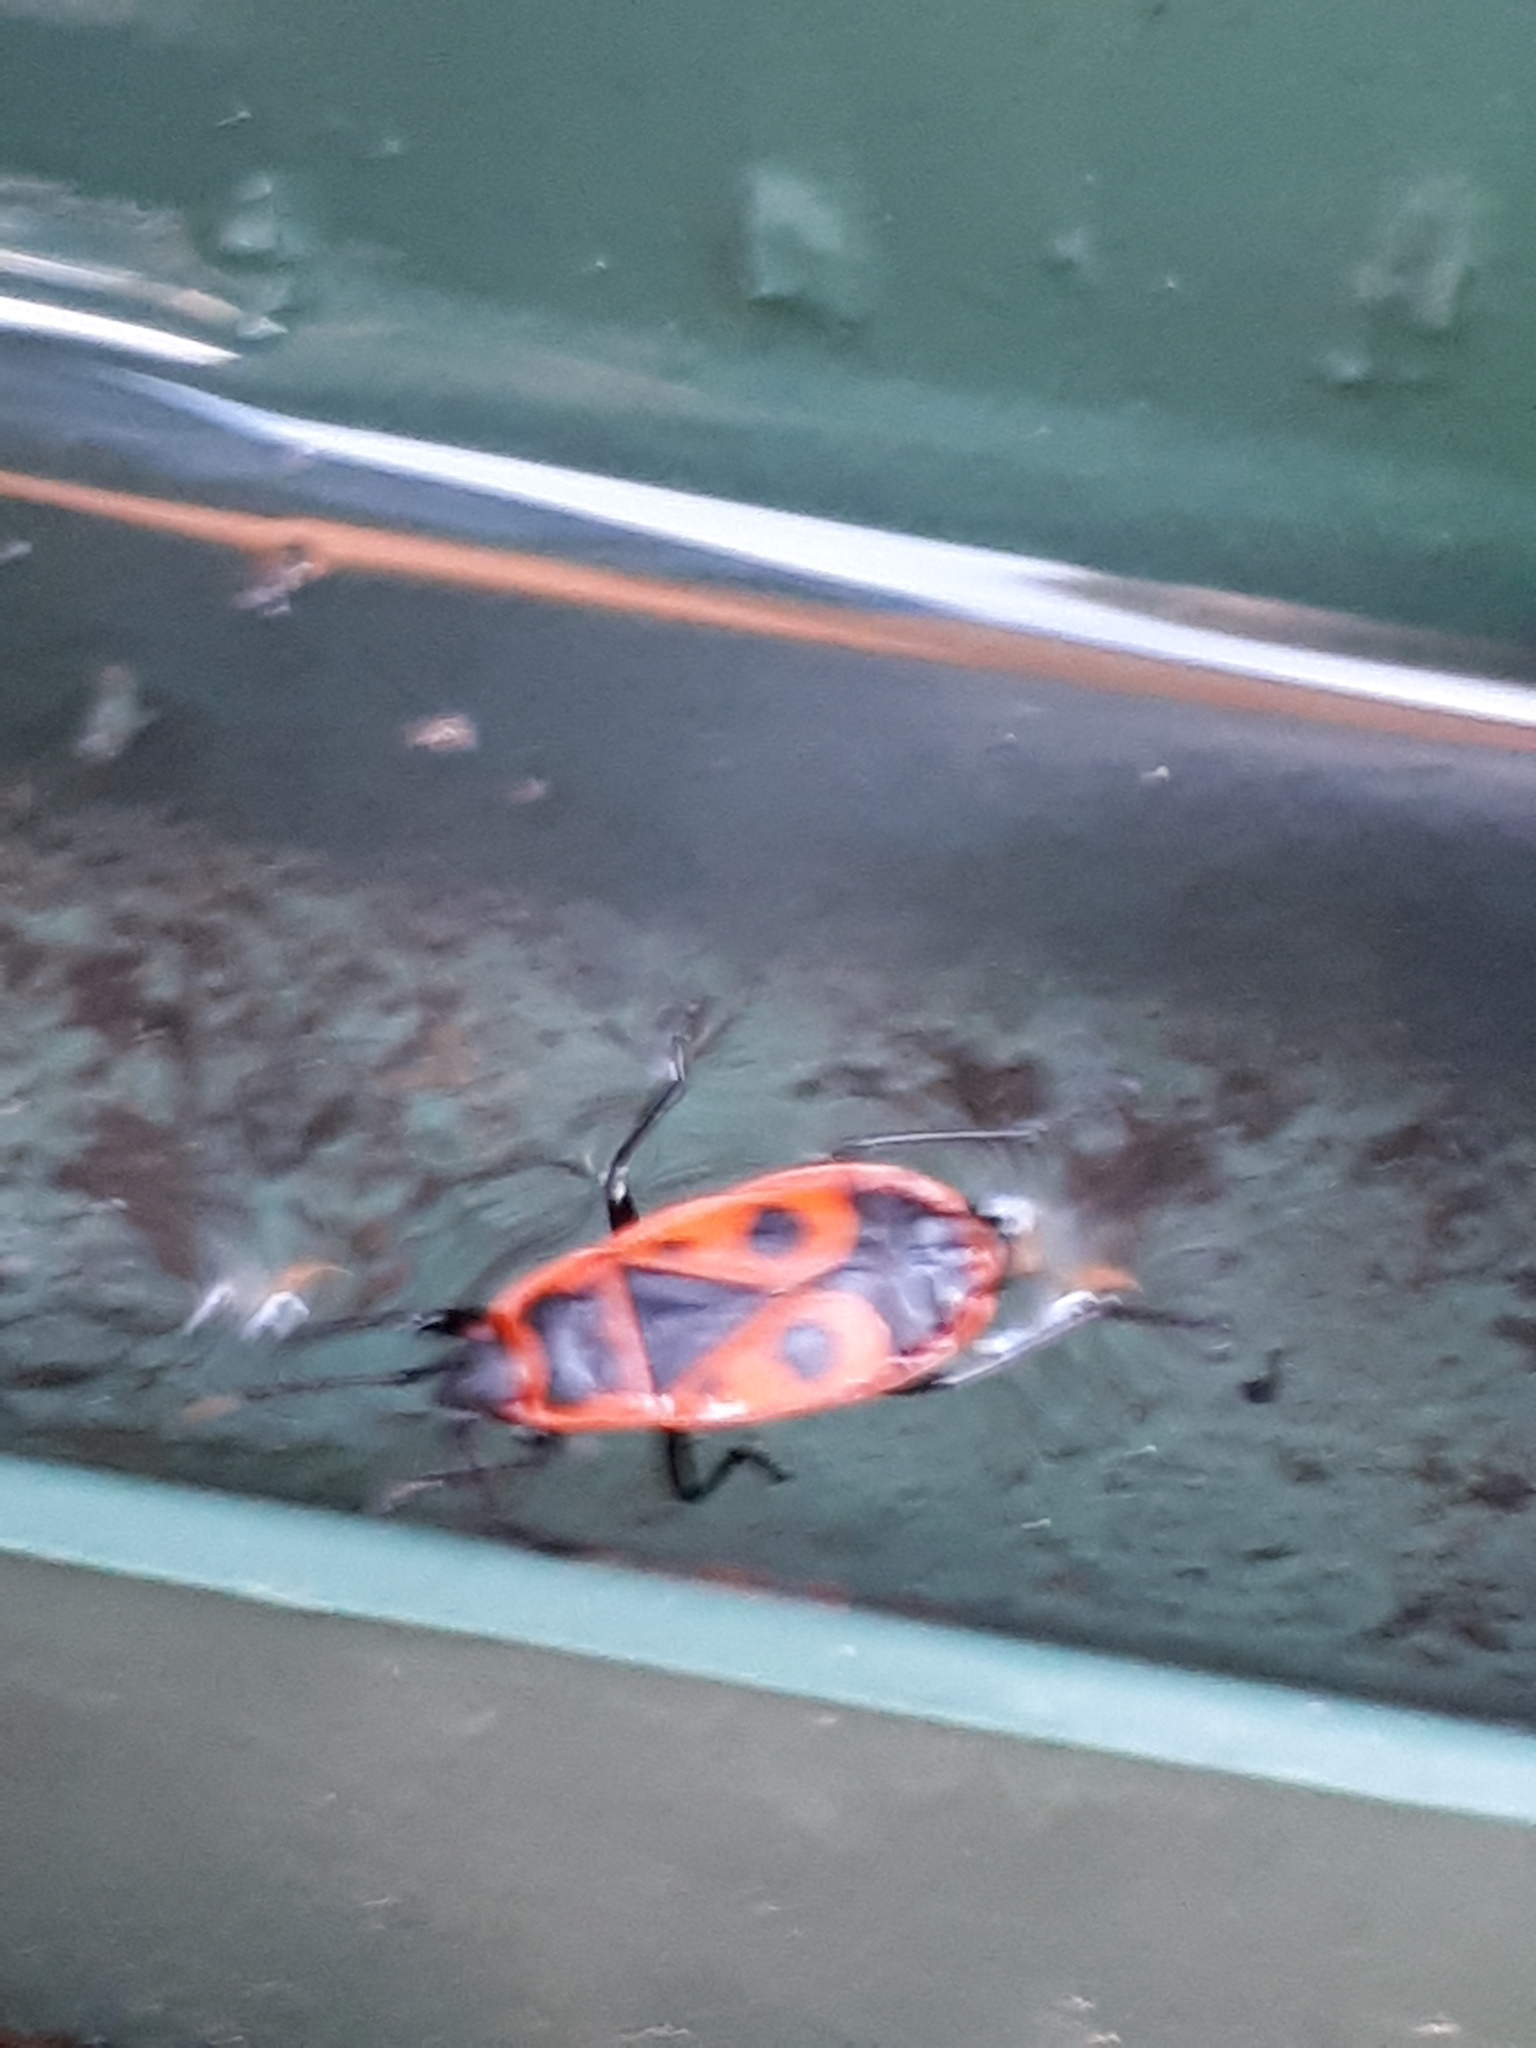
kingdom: Animalia
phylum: Arthropoda
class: Insecta
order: Hemiptera
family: Pyrrhocoridae
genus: Pyrrhocoris
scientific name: Pyrrhocoris apterus
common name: Firebug
